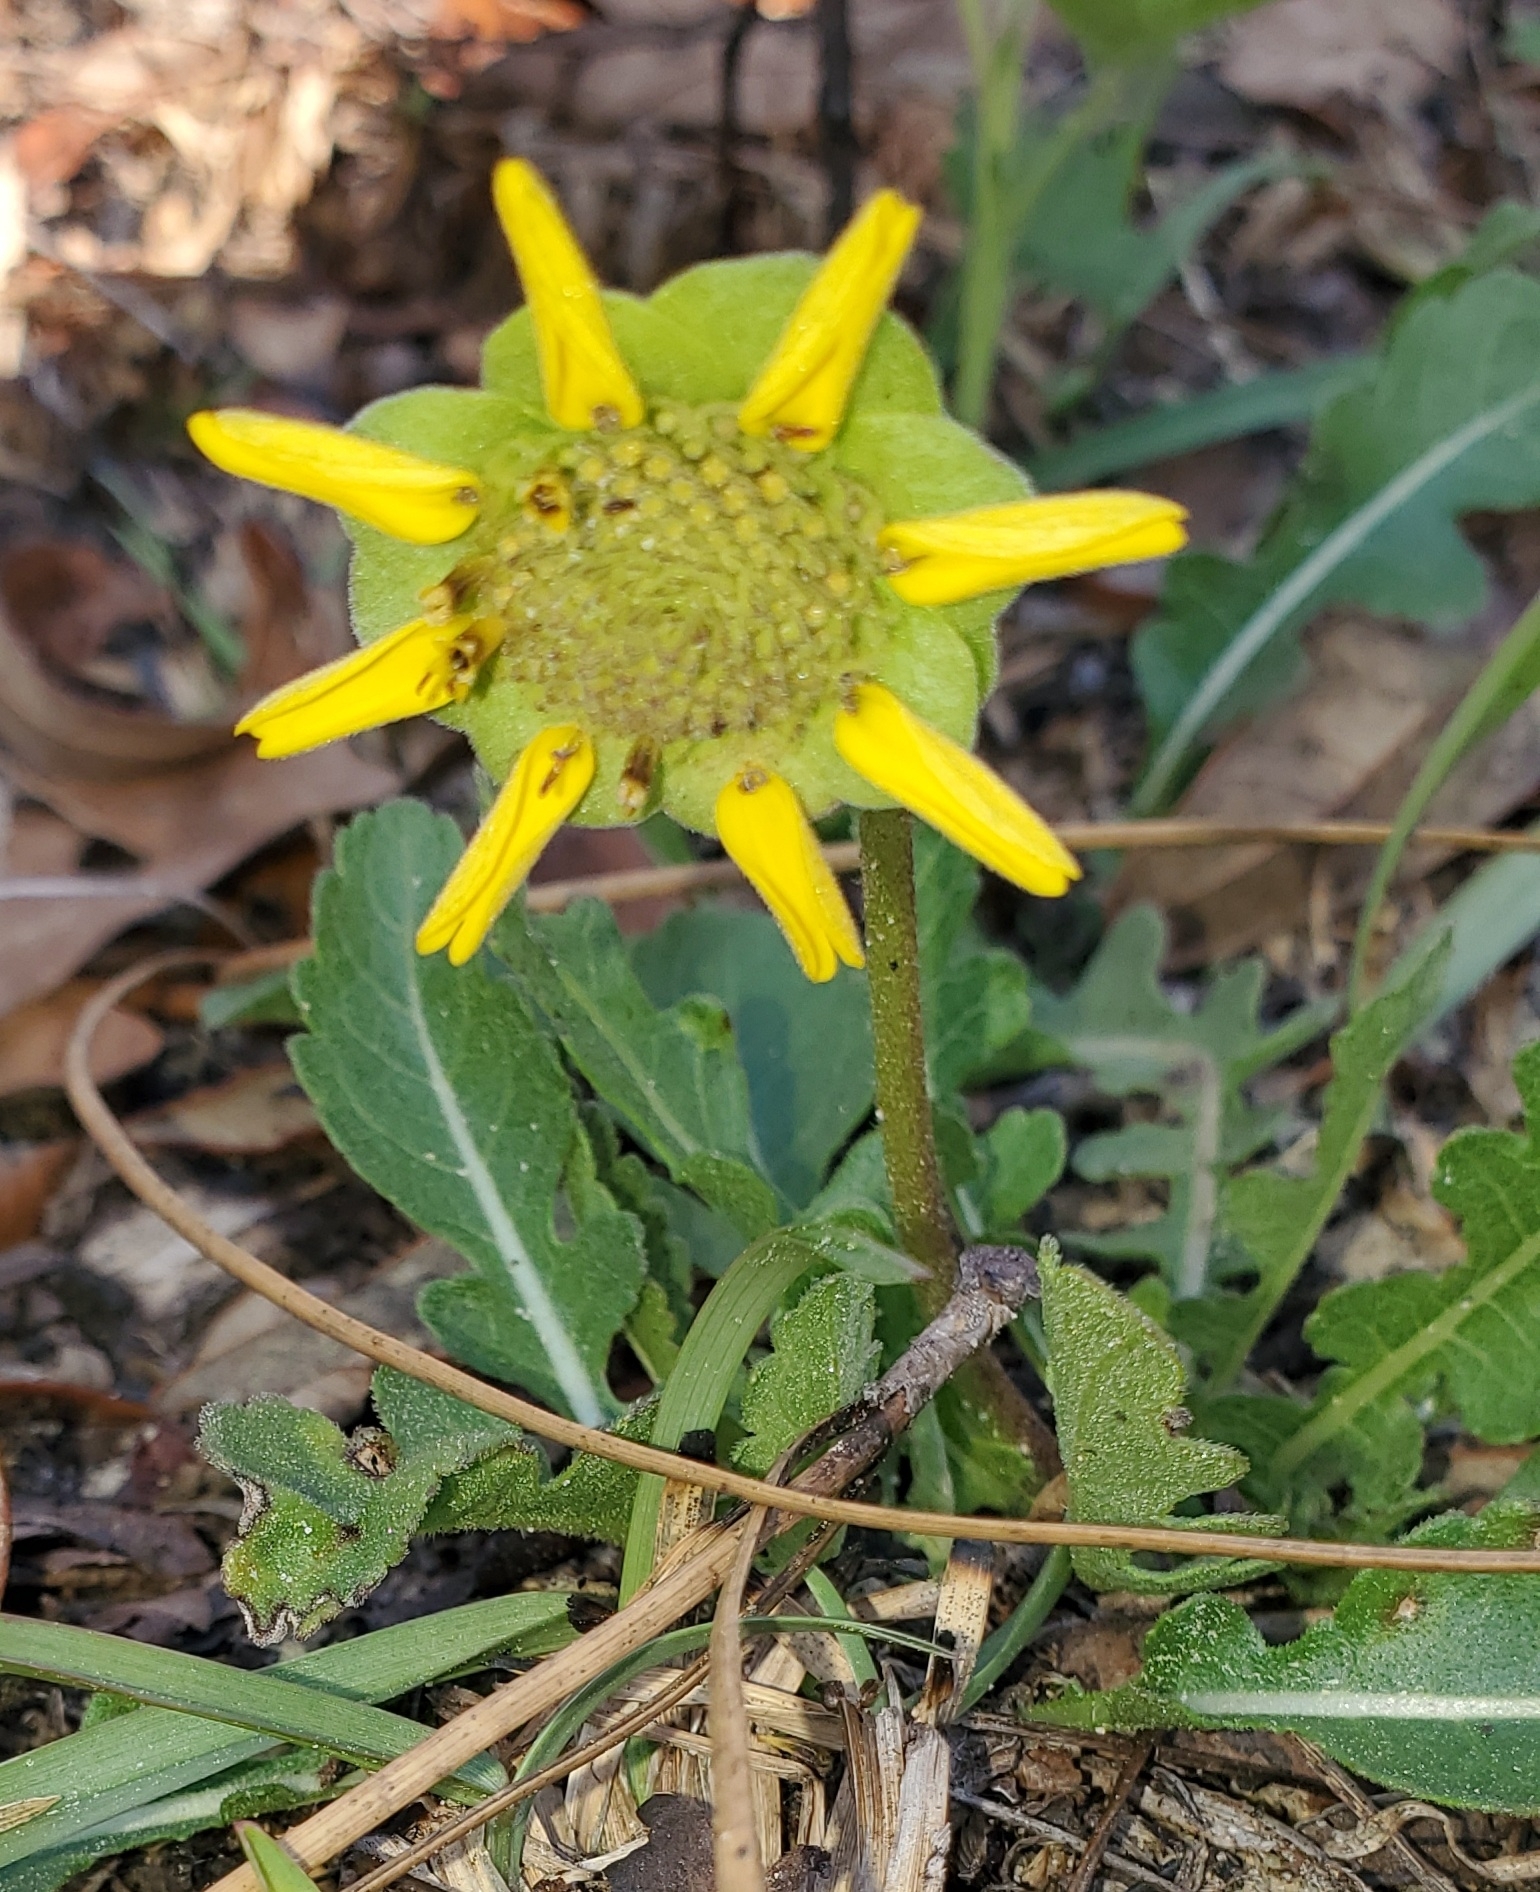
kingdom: Plantae
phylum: Tracheophyta
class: Magnoliopsida
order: Asterales
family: Asteraceae
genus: Berlandiera
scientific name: Berlandiera subacaulis
